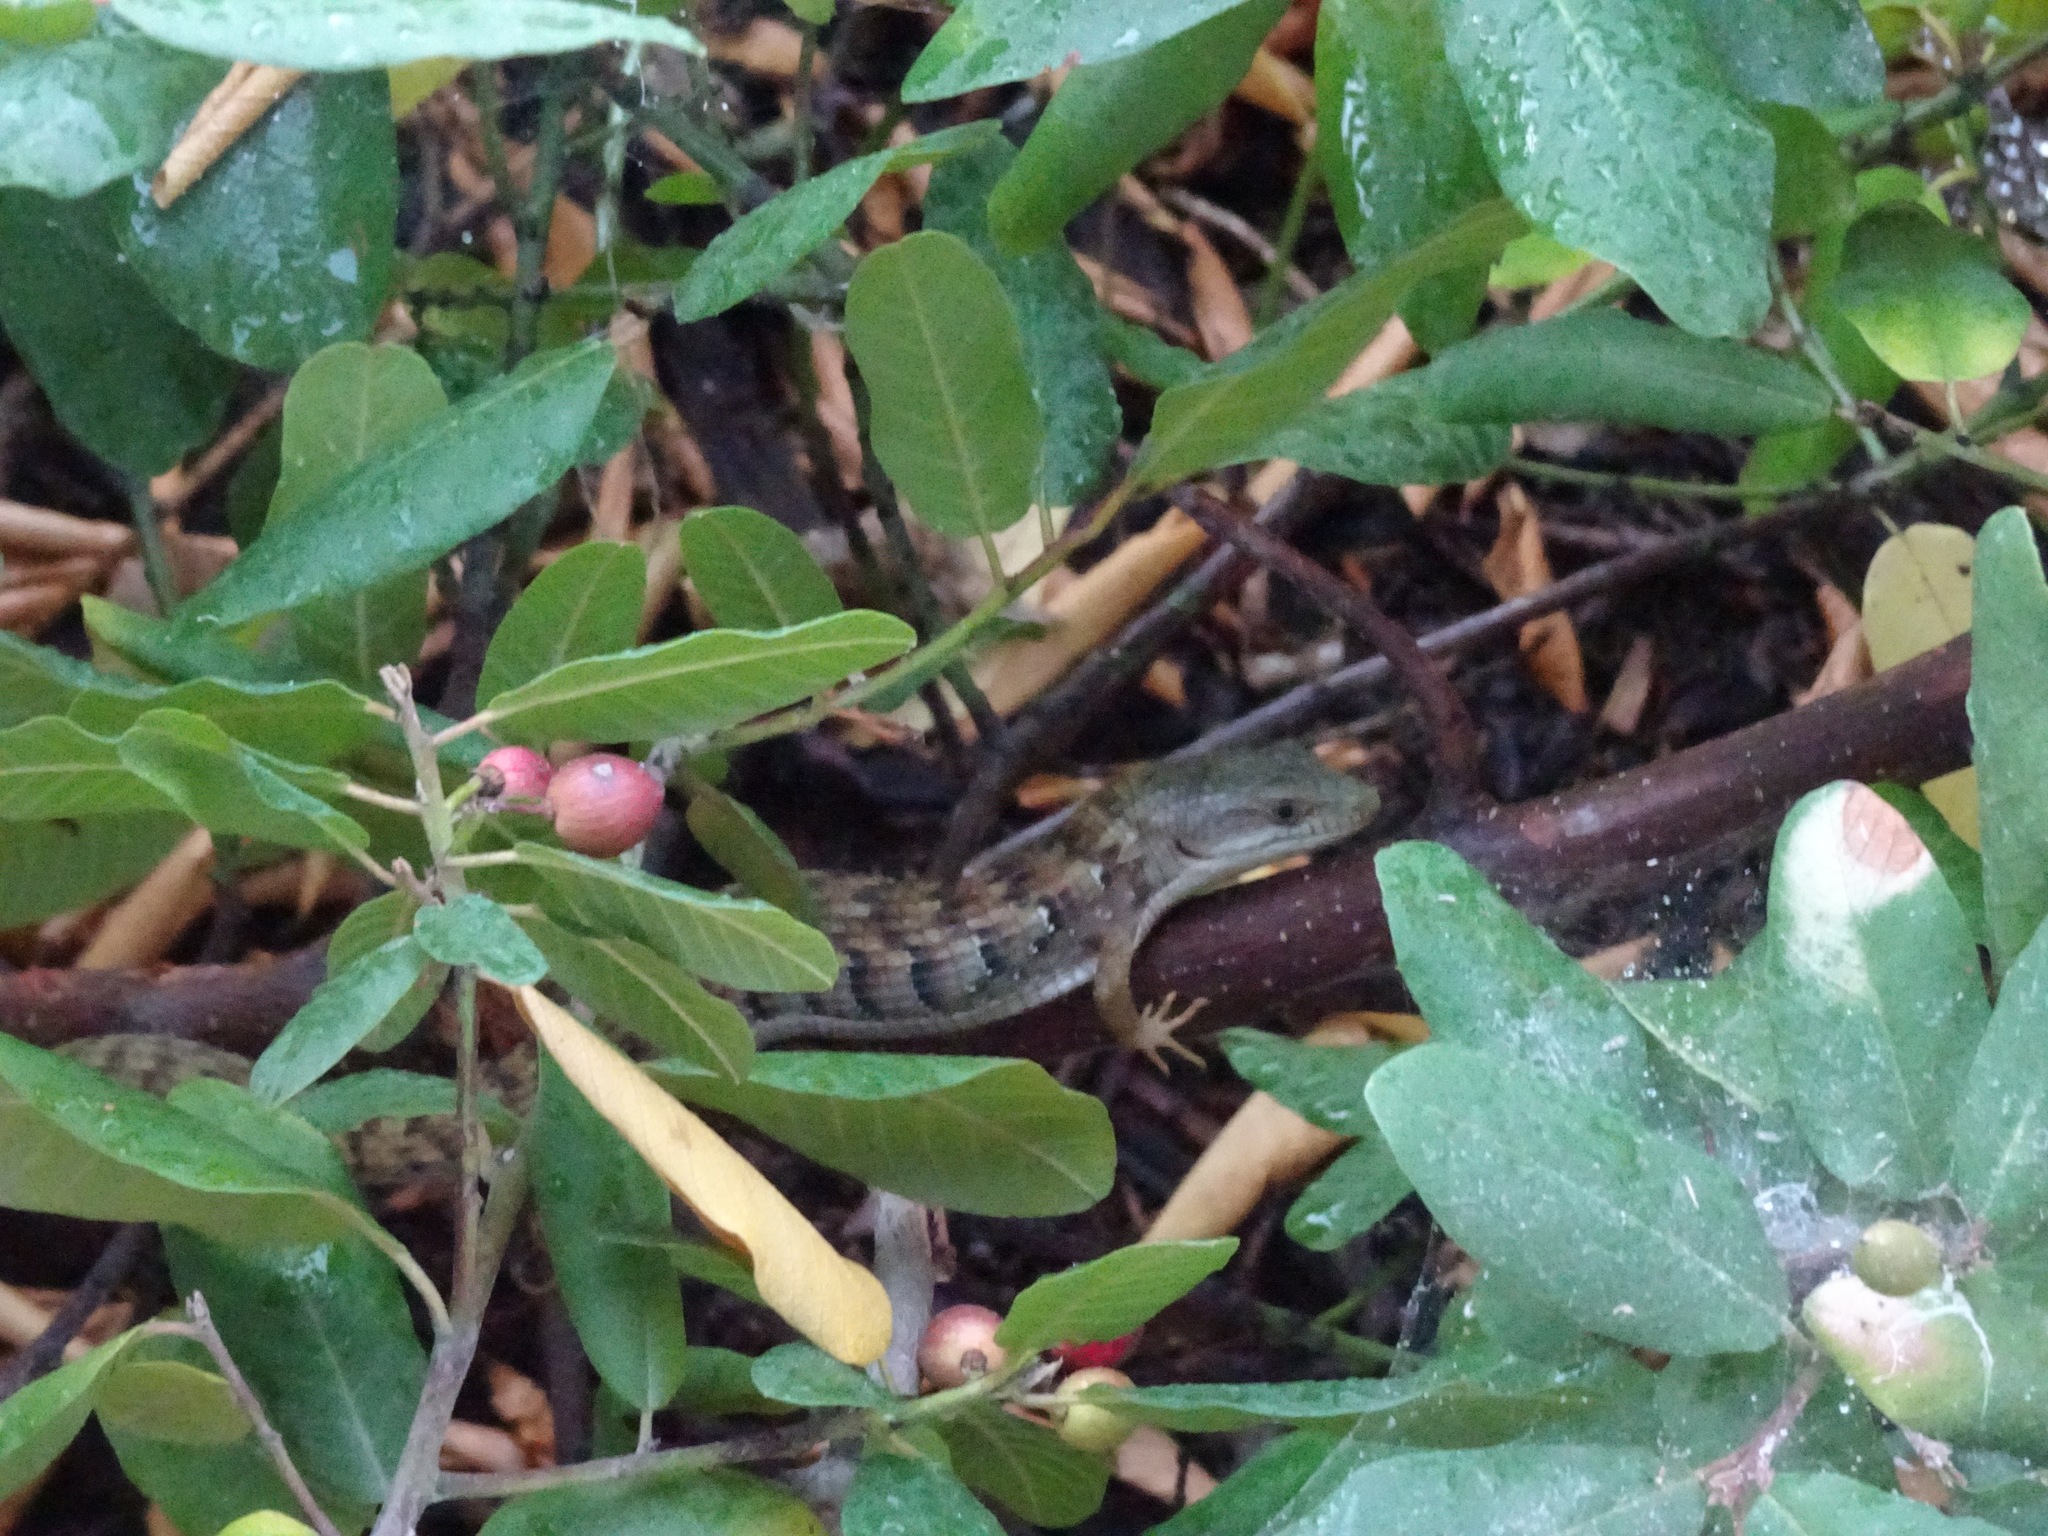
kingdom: Animalia
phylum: Chordata
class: Squamata
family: Anguidae
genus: Elgaria
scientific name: Elgaria multicarinata
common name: Southern alligator lizard
